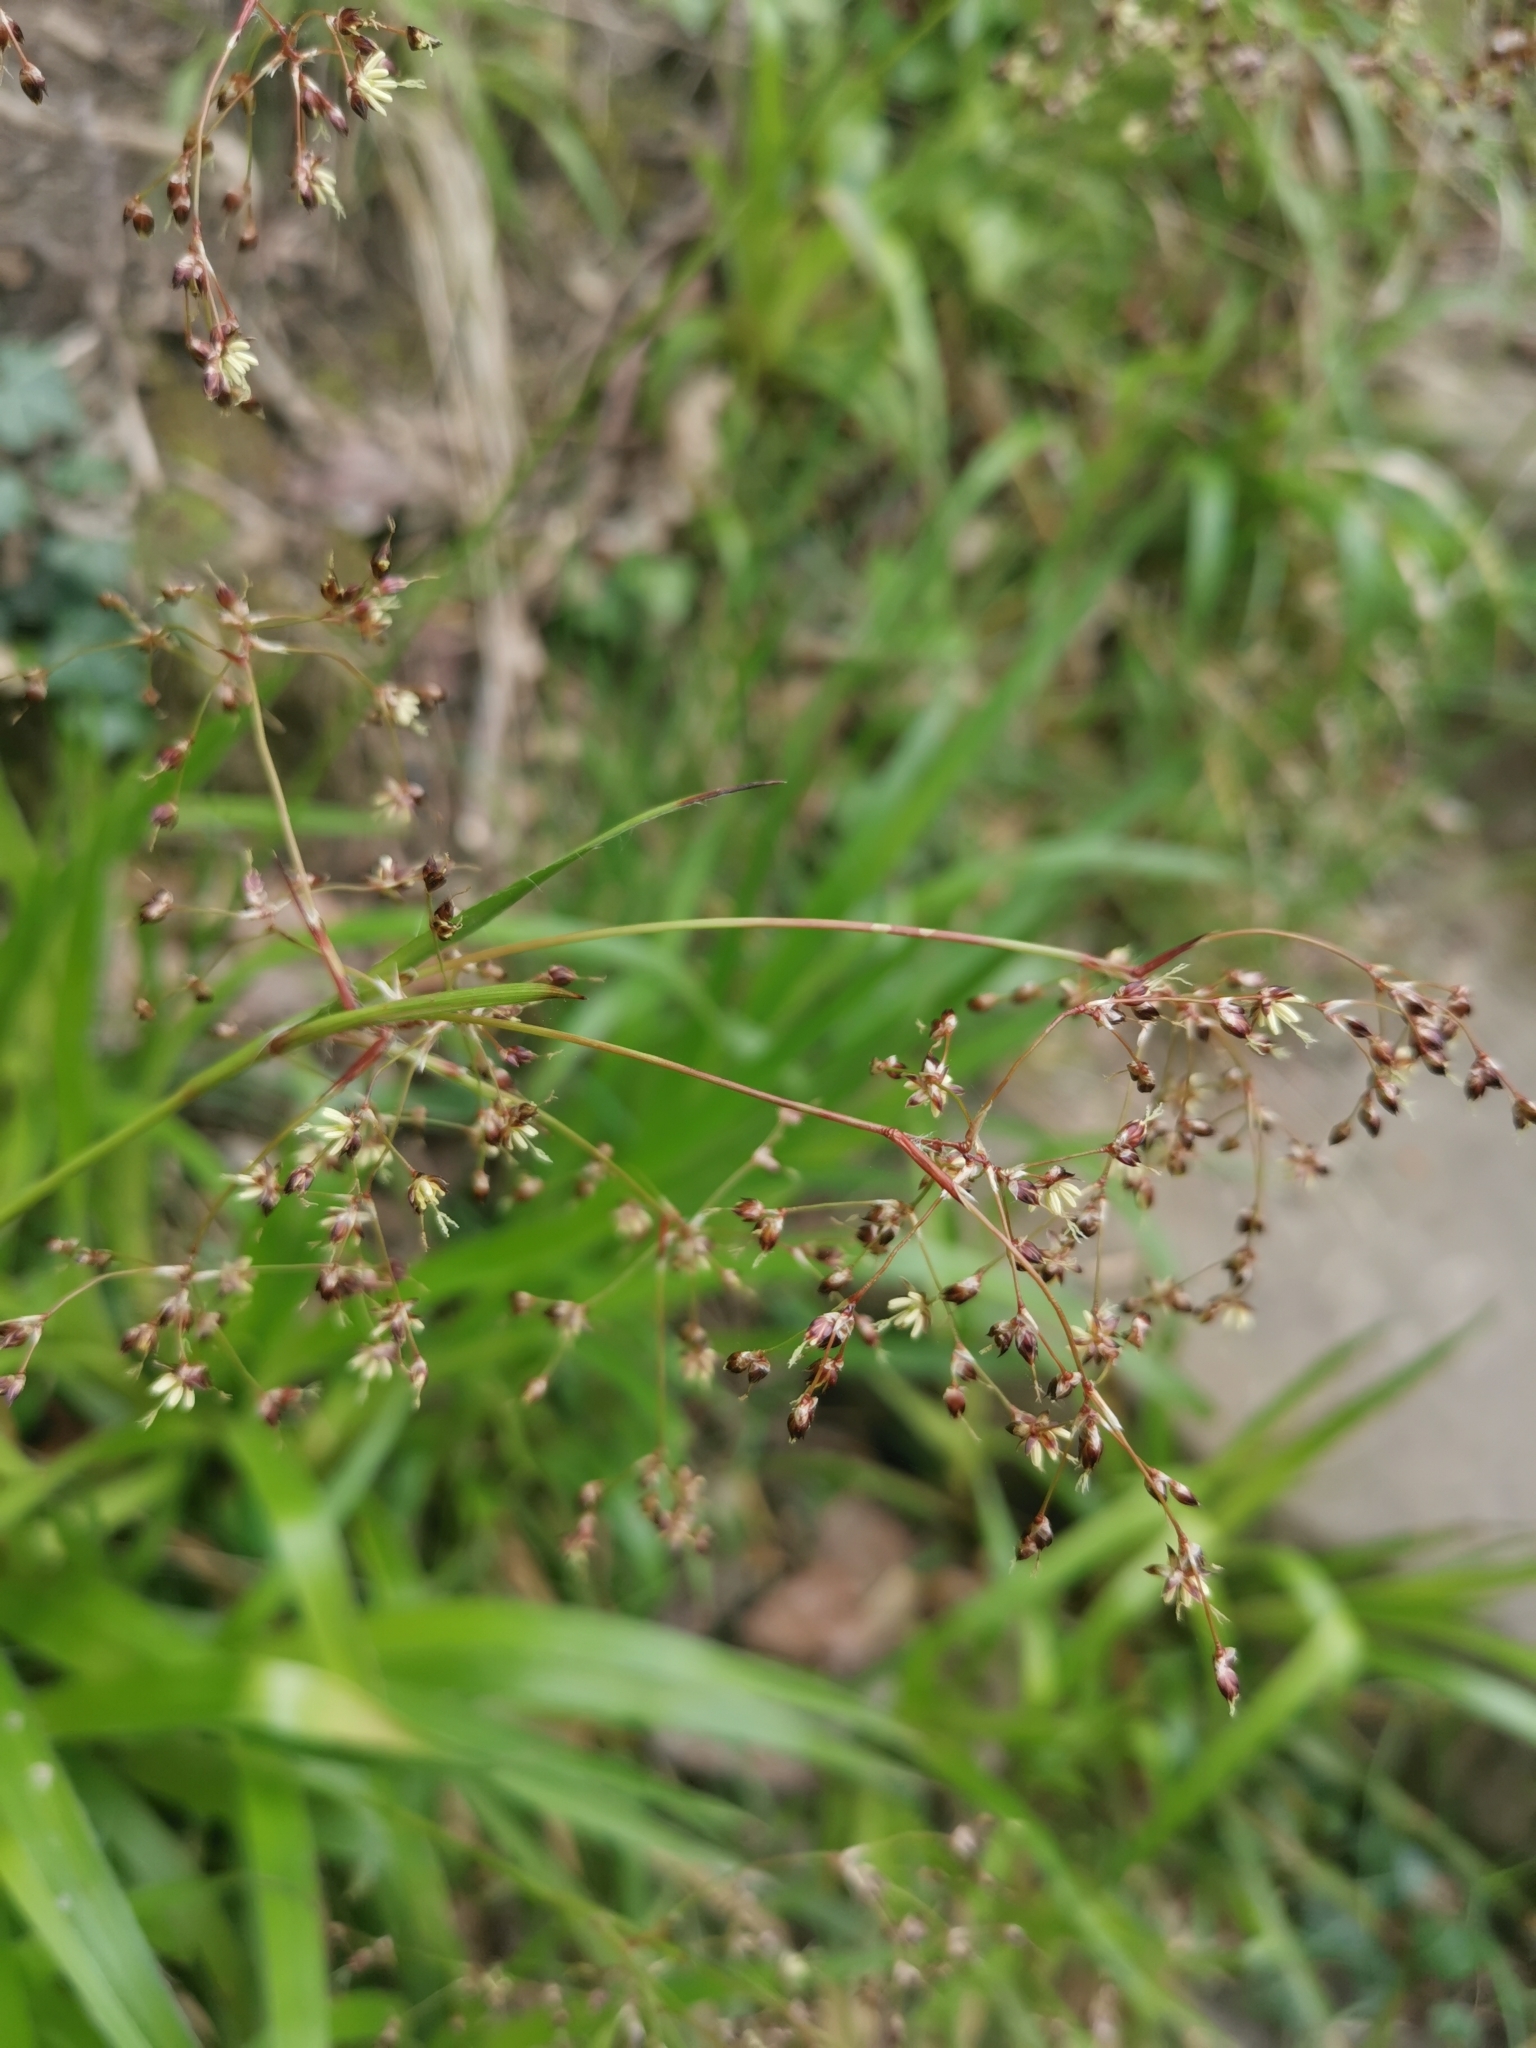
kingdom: Plantae
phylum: Tracheophyta
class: Liliopsida
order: Poales
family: Juncaceae
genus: Luzula
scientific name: Luzula sylvatica
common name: Great wood-rush
